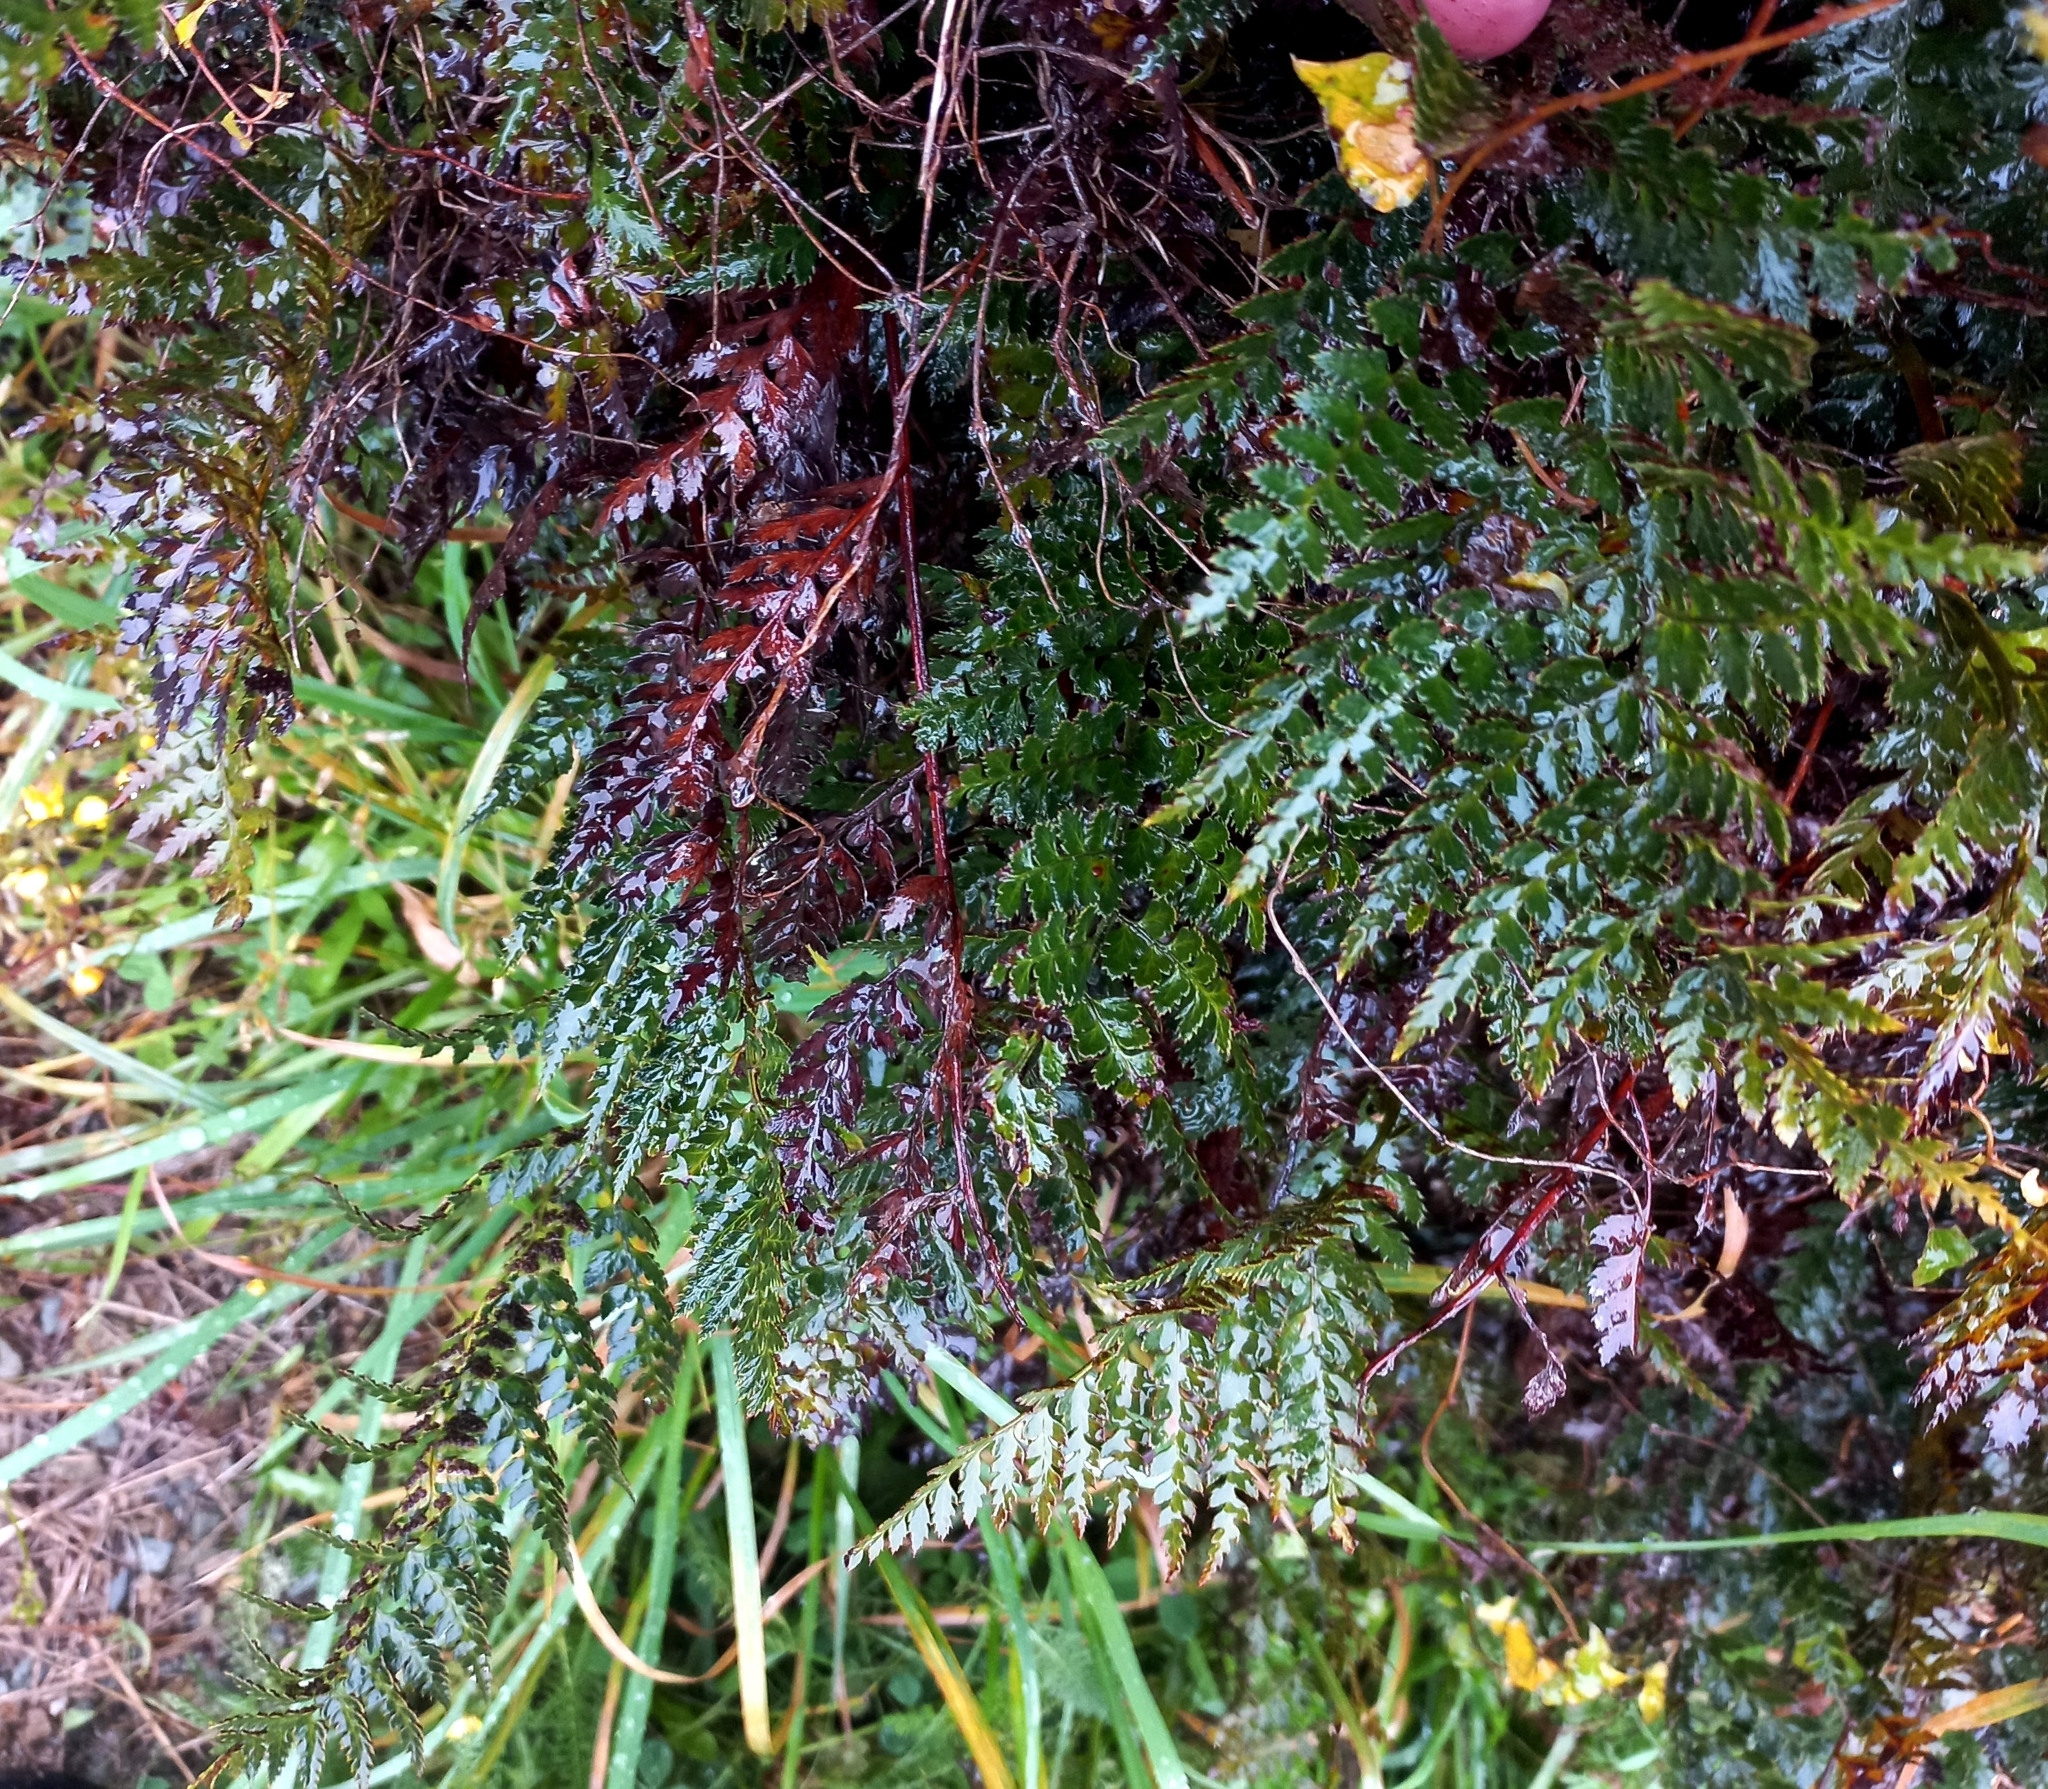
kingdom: Plantae
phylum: Tracheophyta
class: Polypodiopsida
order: Polypodiales
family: Dryopteridaceae
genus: Polystichum
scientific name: Polystichum vestitum
